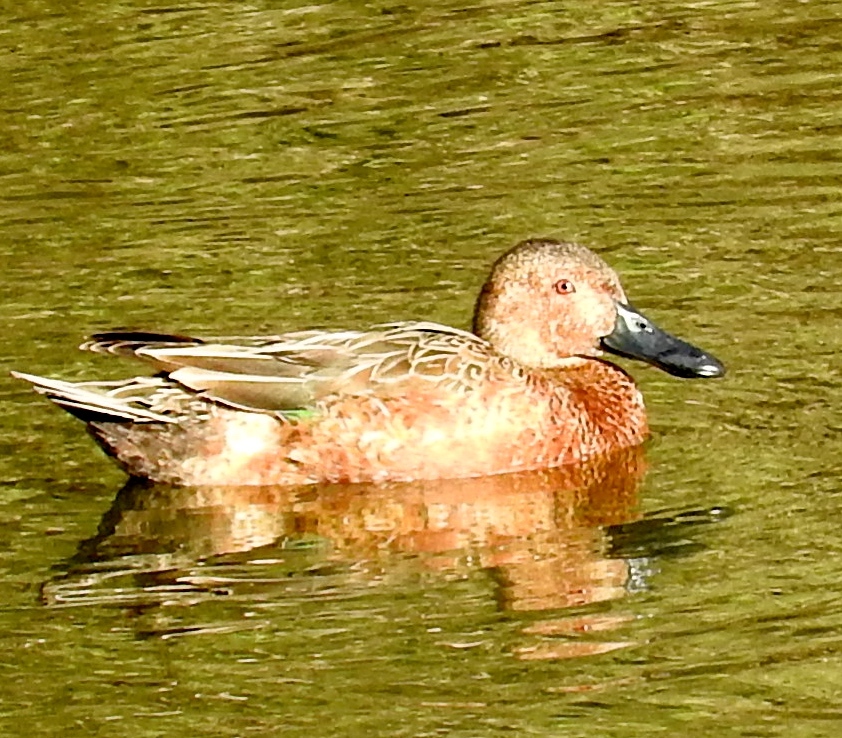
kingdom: Animalia
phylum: Chordata
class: Aves
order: Anseriformes
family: Anatidae
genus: Spatula
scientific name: Spatula cyanoptera
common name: Cinnamon teal
